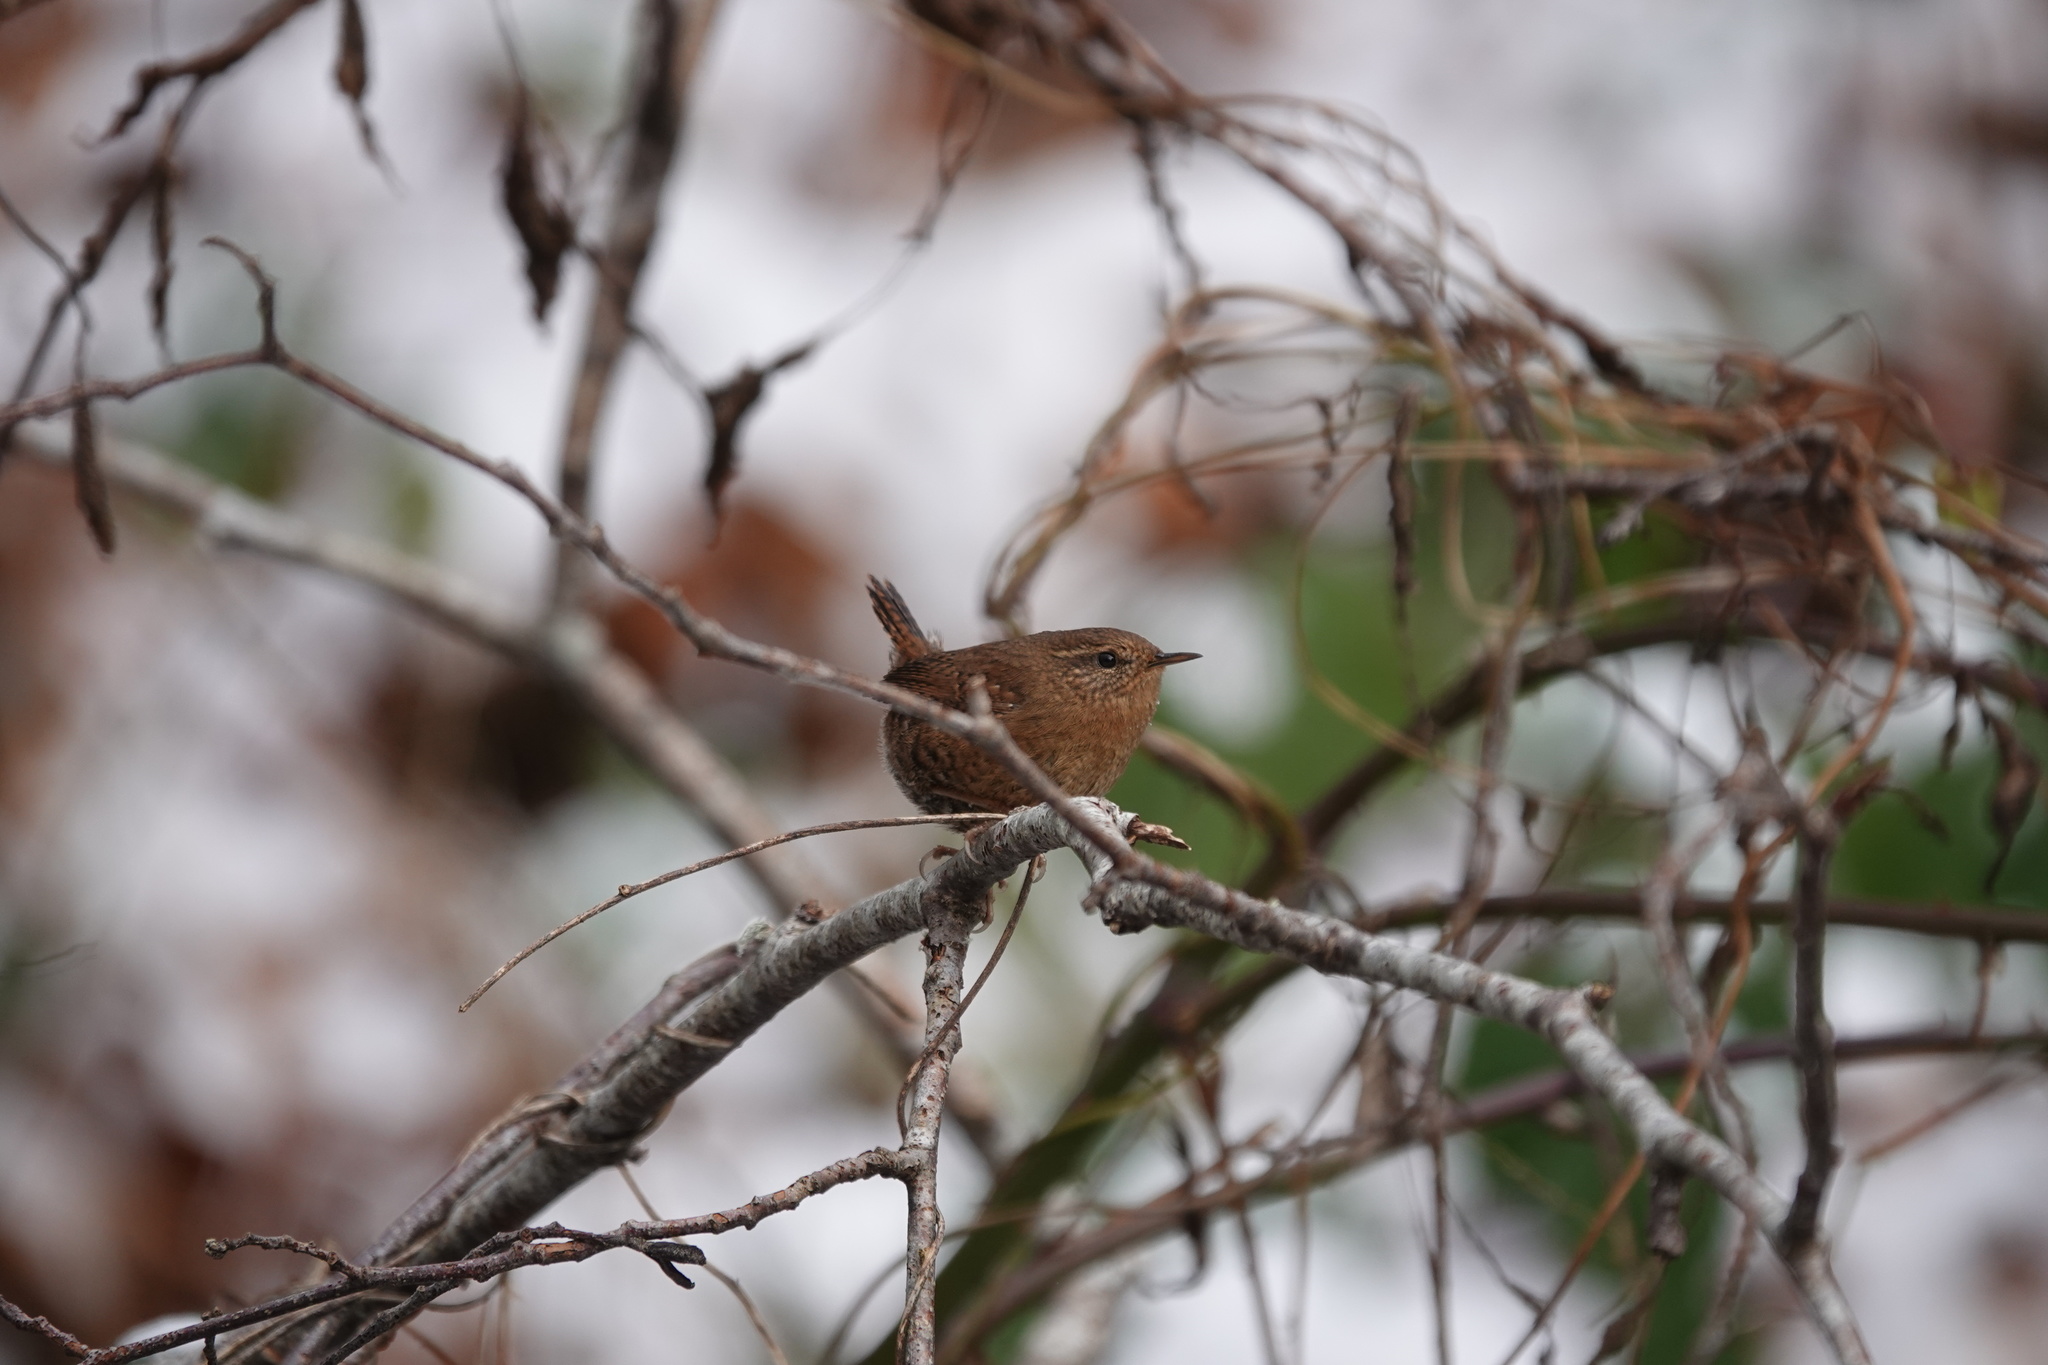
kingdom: Animalia
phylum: Chordata
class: Aves
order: Passeriformes
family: Troglodytidae
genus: Troglodytes
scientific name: Troglodytes pacificus
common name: Pacific wren
